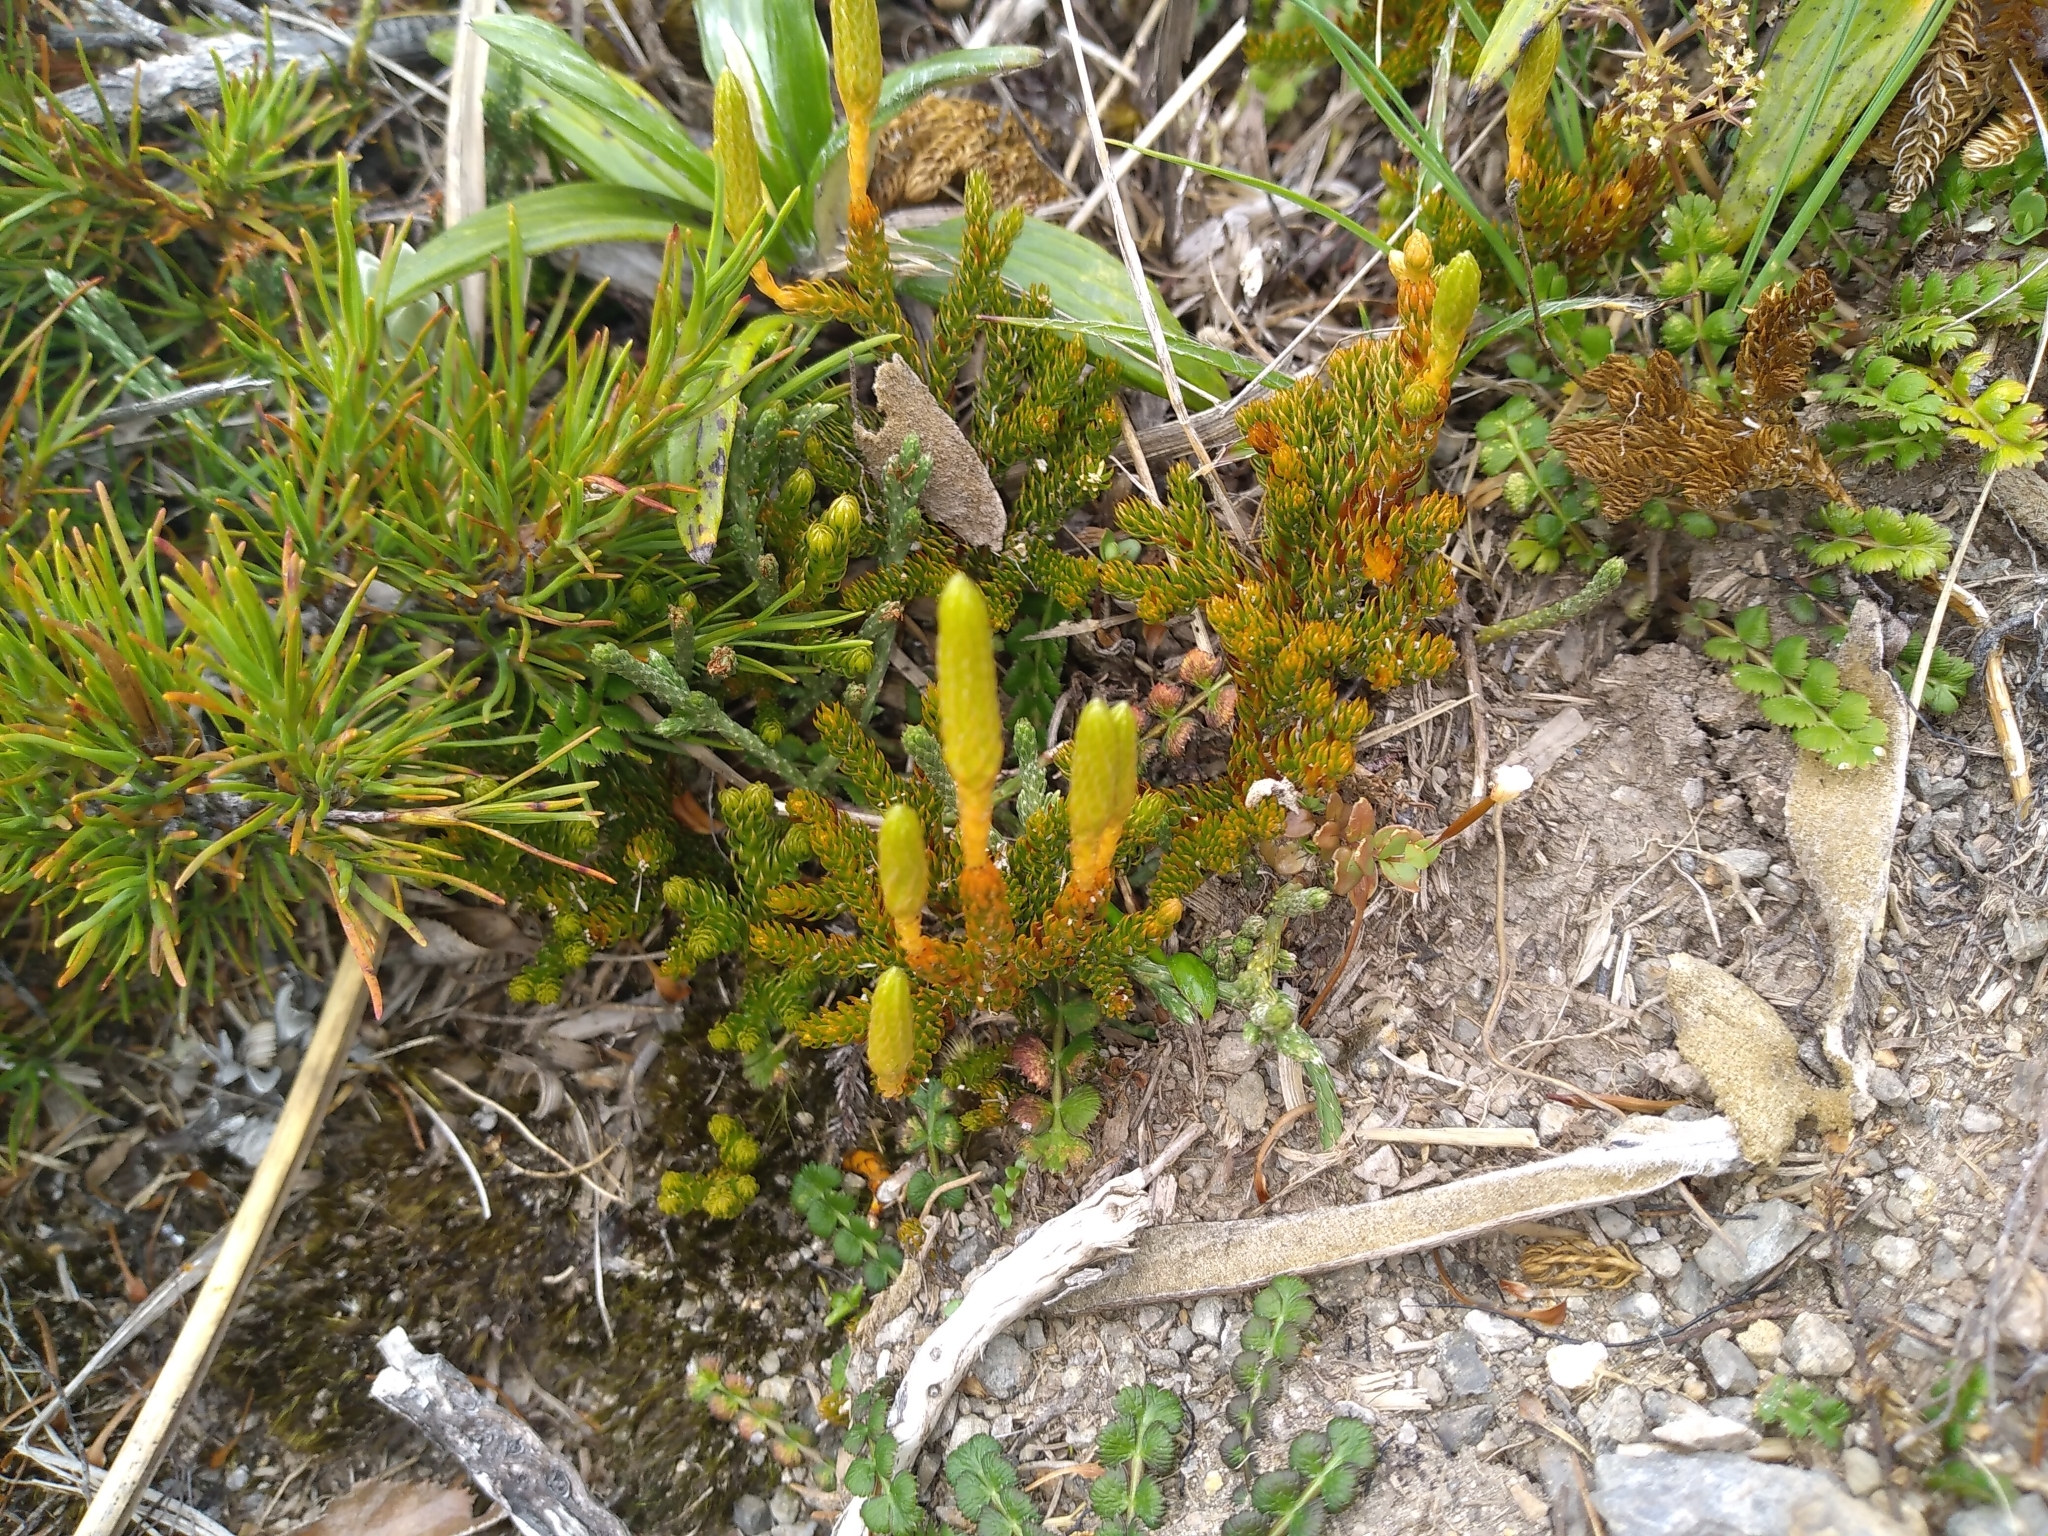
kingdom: Plantae
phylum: Tracheophyta
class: Lycopodiopsida
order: Lycopodiales
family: Lycopodiaceae
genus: Austrolycopodium
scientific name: Austrolycopodium fastigiatum
